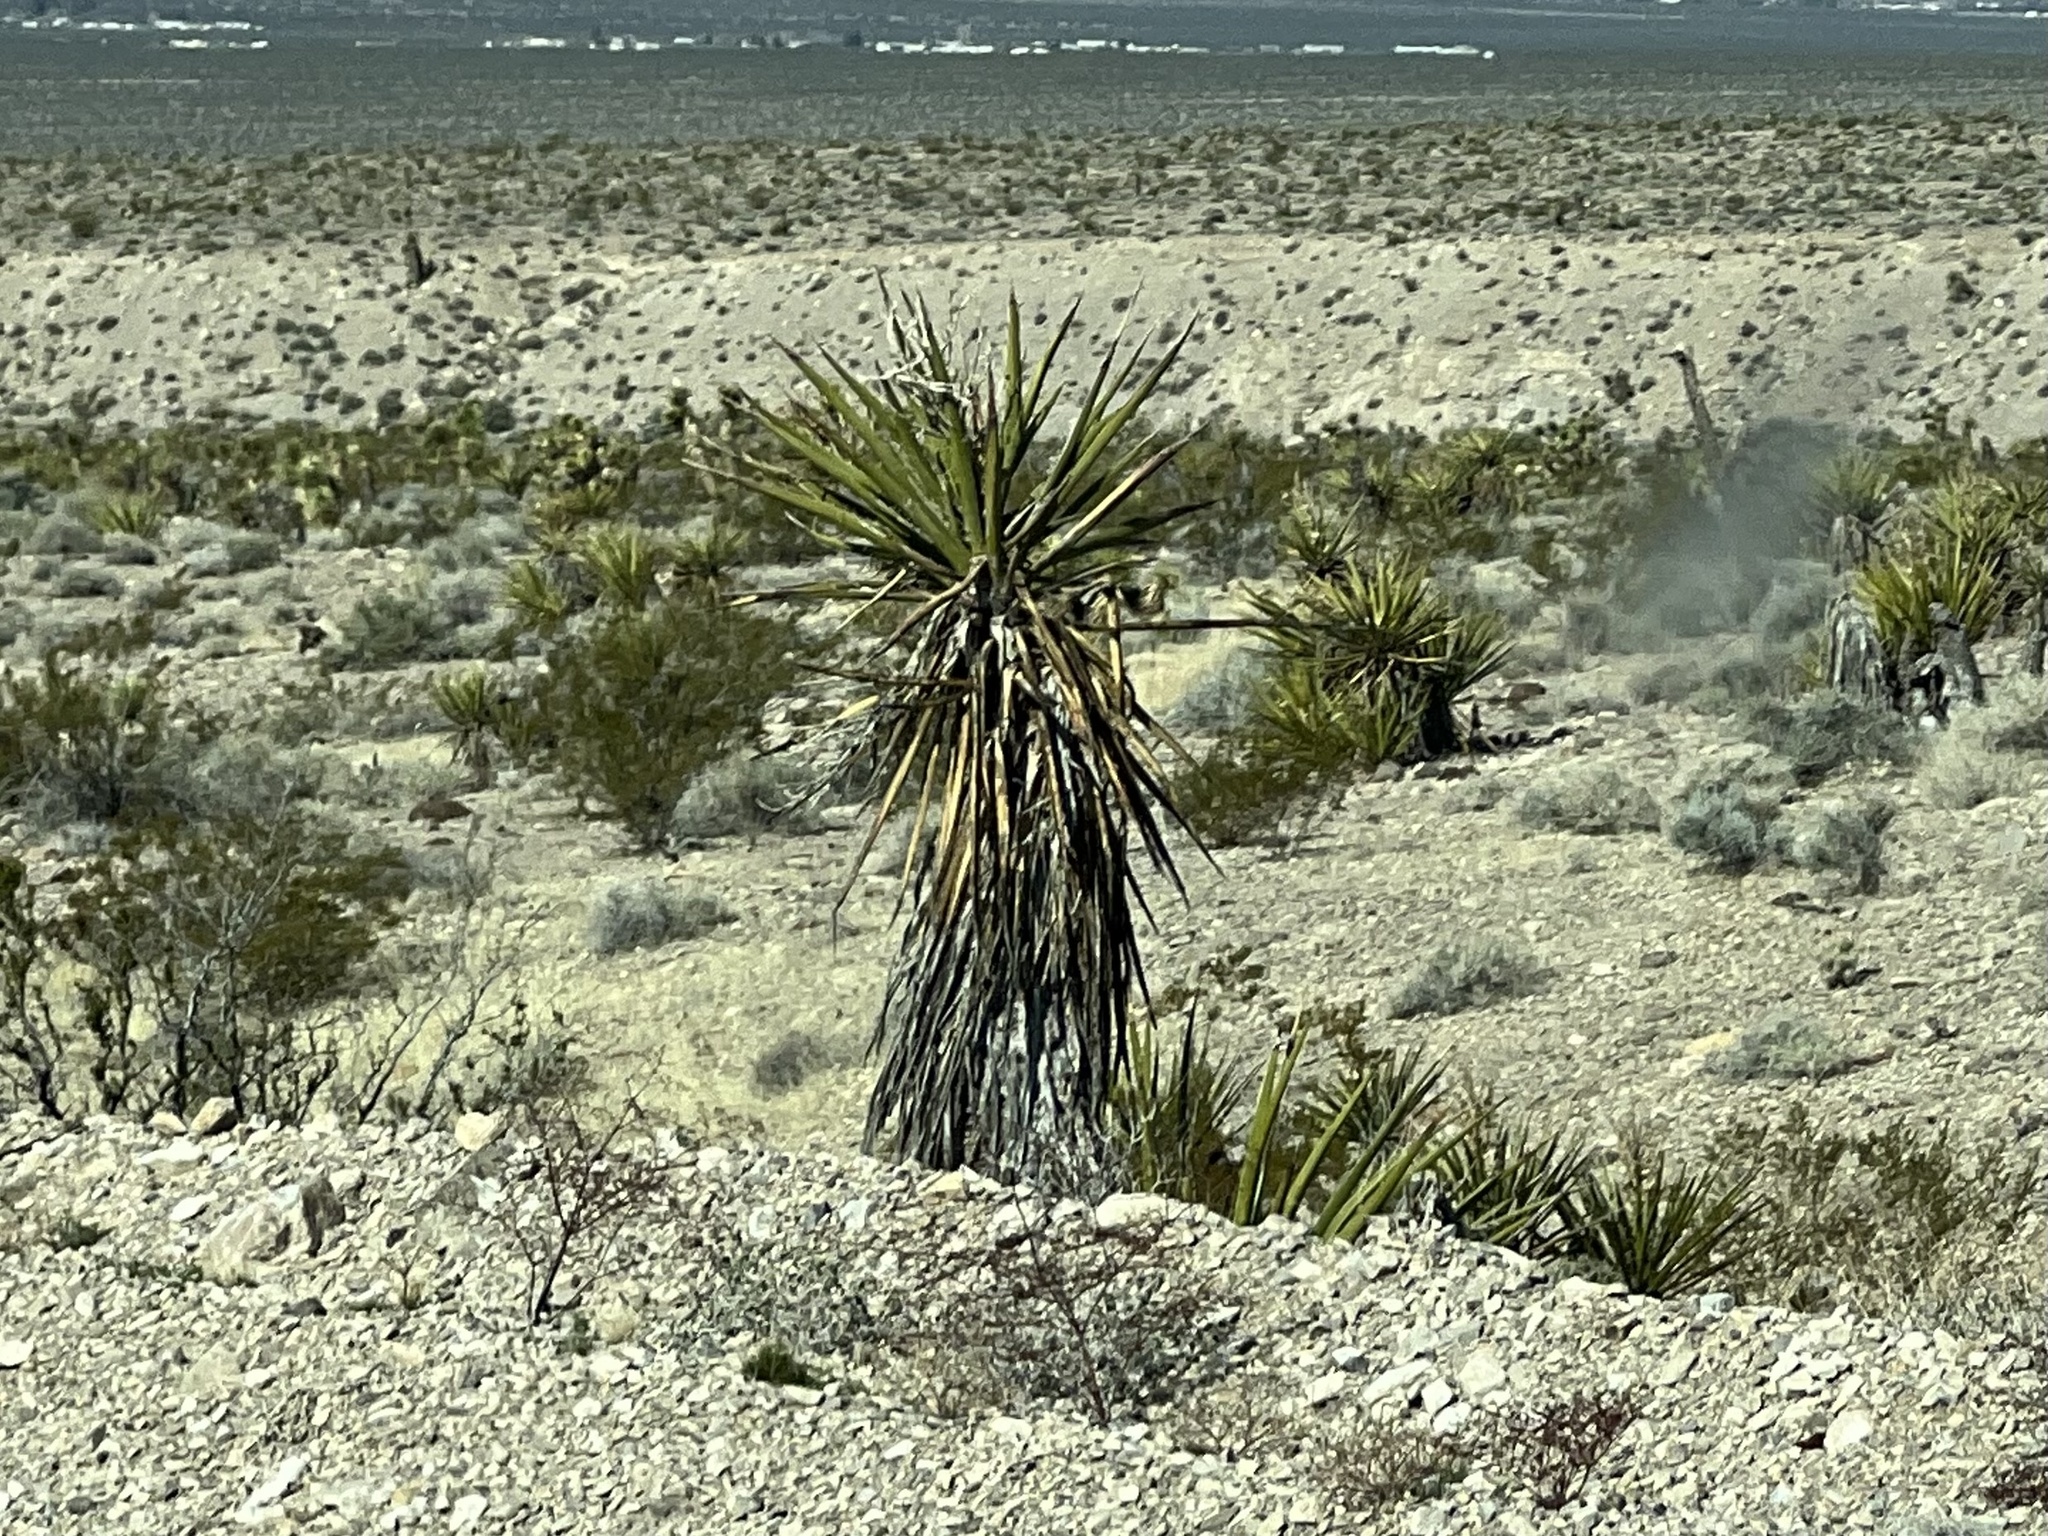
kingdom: Plantae
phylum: Tracheophyta
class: Liliopsida
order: Asparagales
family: Asparagaceae
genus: Yucca
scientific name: Yucca schidigera
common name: Mojave yucca
